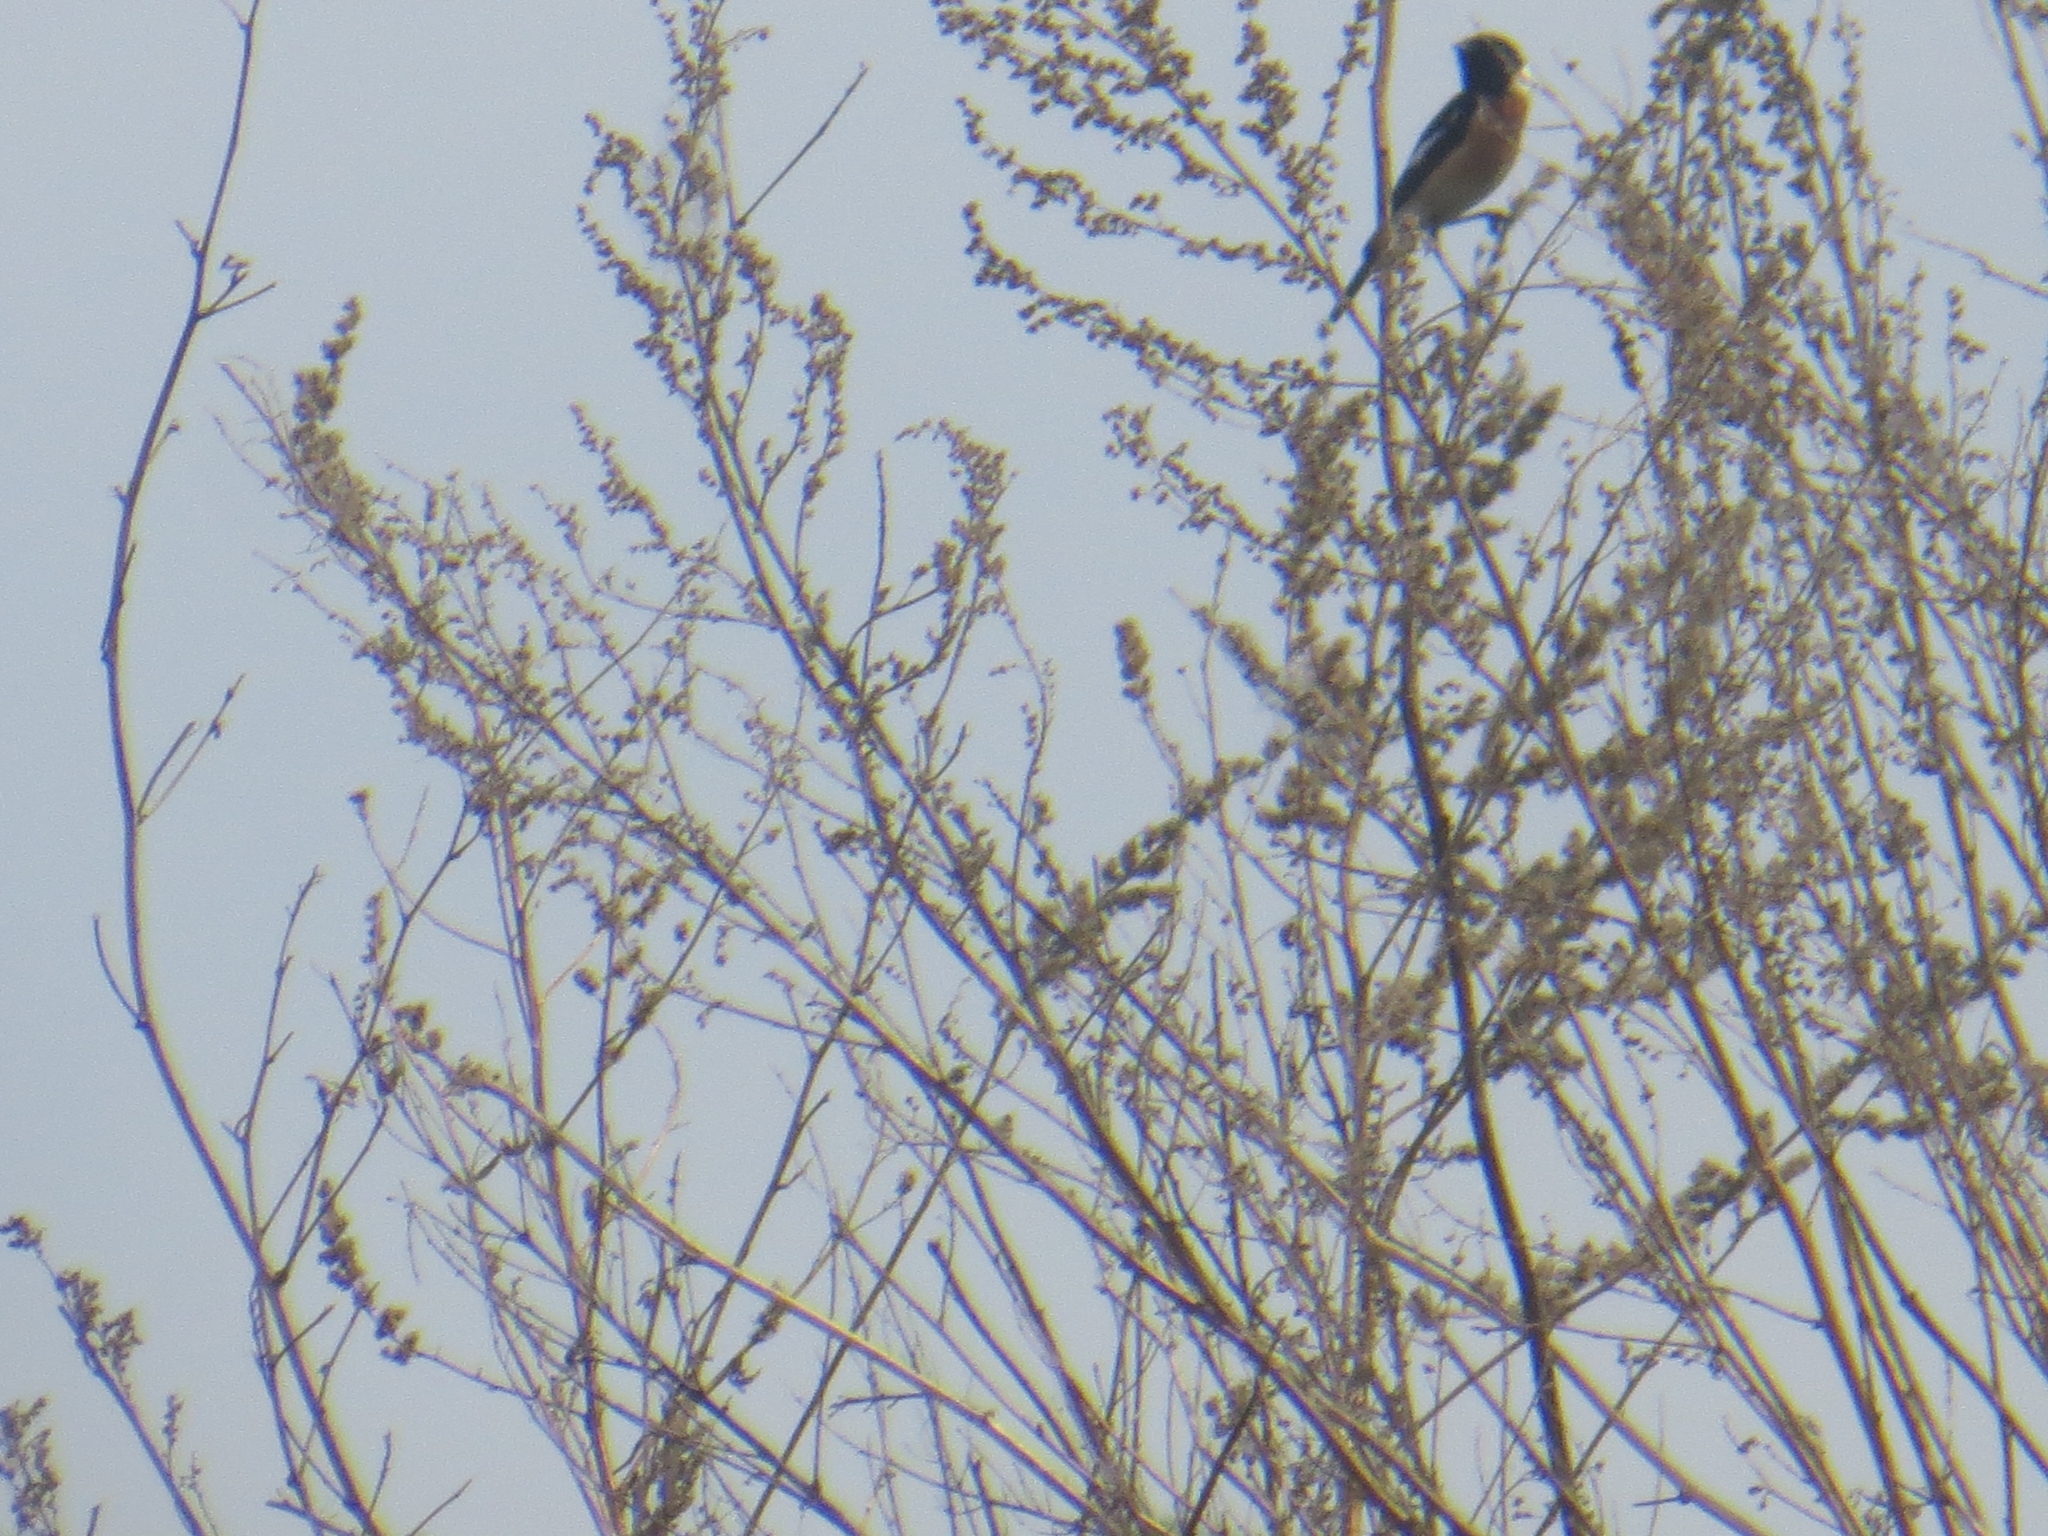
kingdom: Animalia
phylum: Chordata
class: Aves
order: Passeriformes
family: Muscicapidae
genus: Saxicola
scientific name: Saxicola maurus
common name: Siberian stonechat
